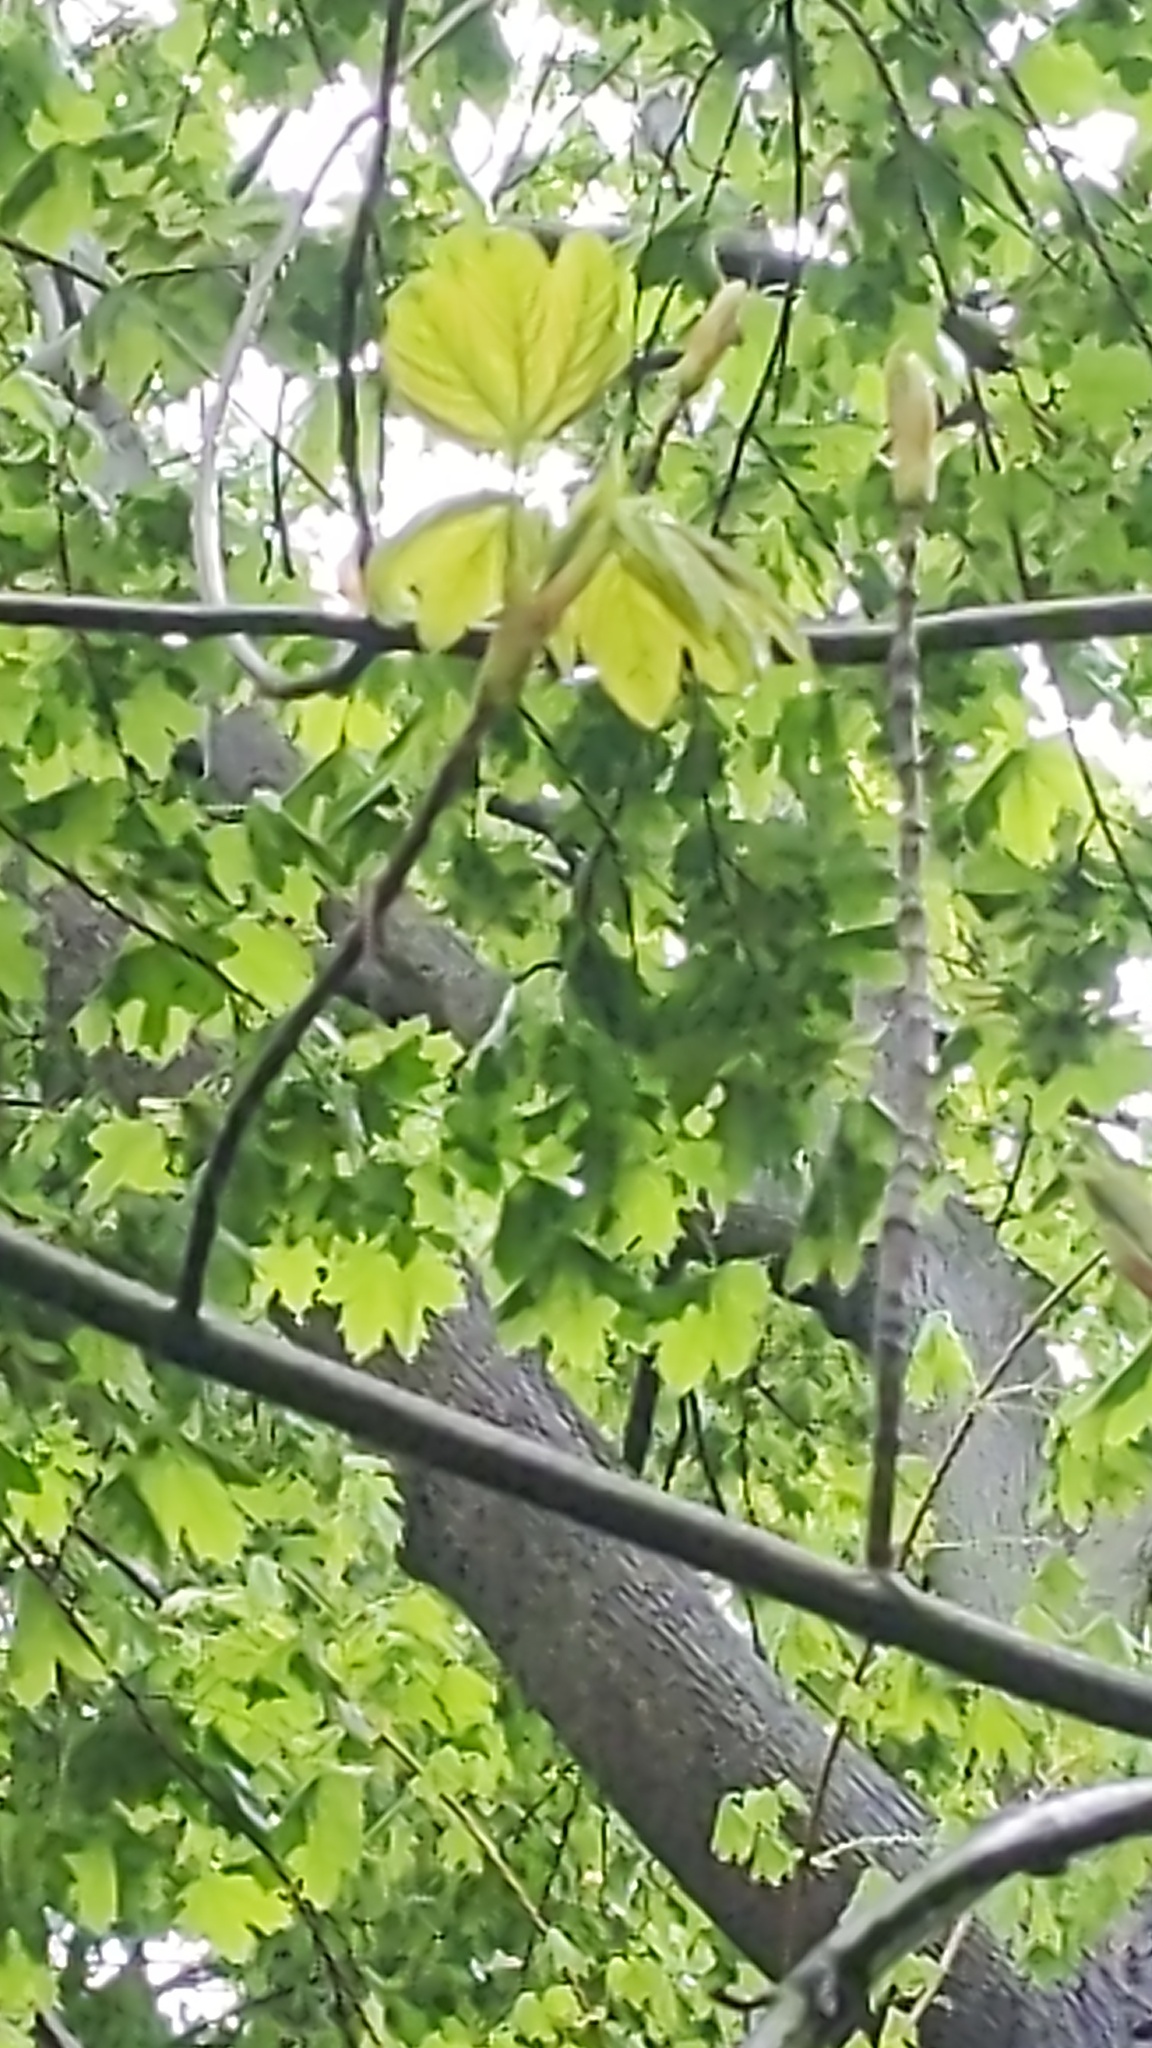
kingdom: Plantae
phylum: Tracheophyta
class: Magnoliopsida
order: Sapindales
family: Sapindaceae
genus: Acer
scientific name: Acer platanoides
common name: Norway maple
